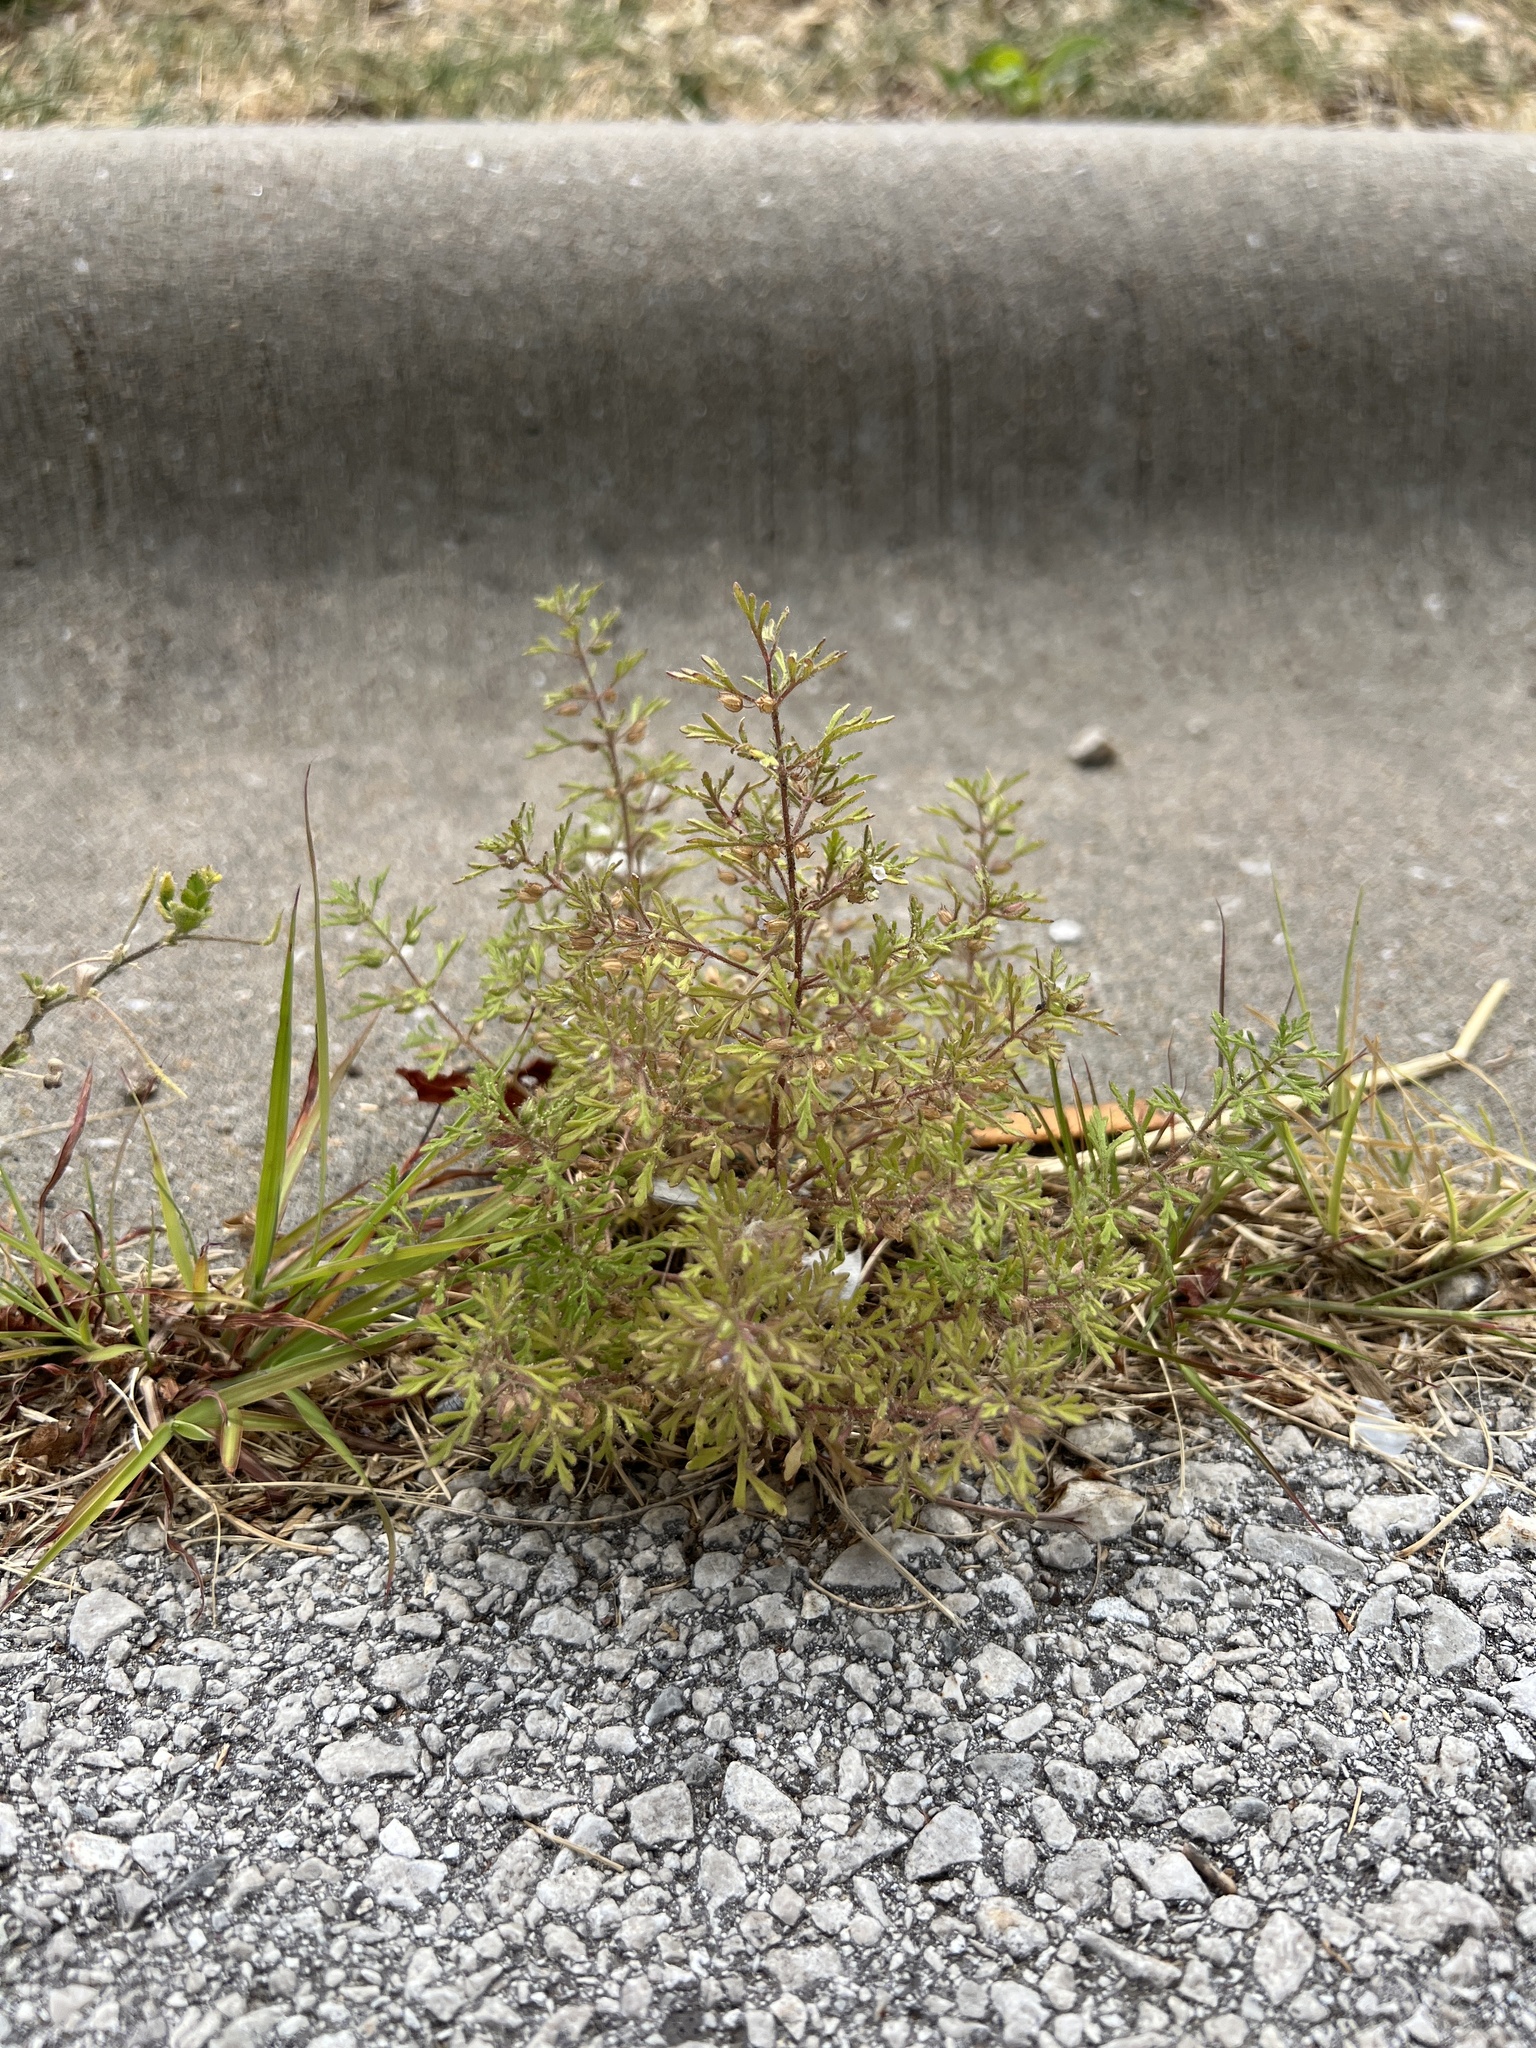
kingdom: Plantae
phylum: Tracheophyta
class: Magnoliopsida
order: Lamiales
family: Plantaginaceae
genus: Leucospora
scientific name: Leucospora multifida
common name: Narrow-leaf paleseed
